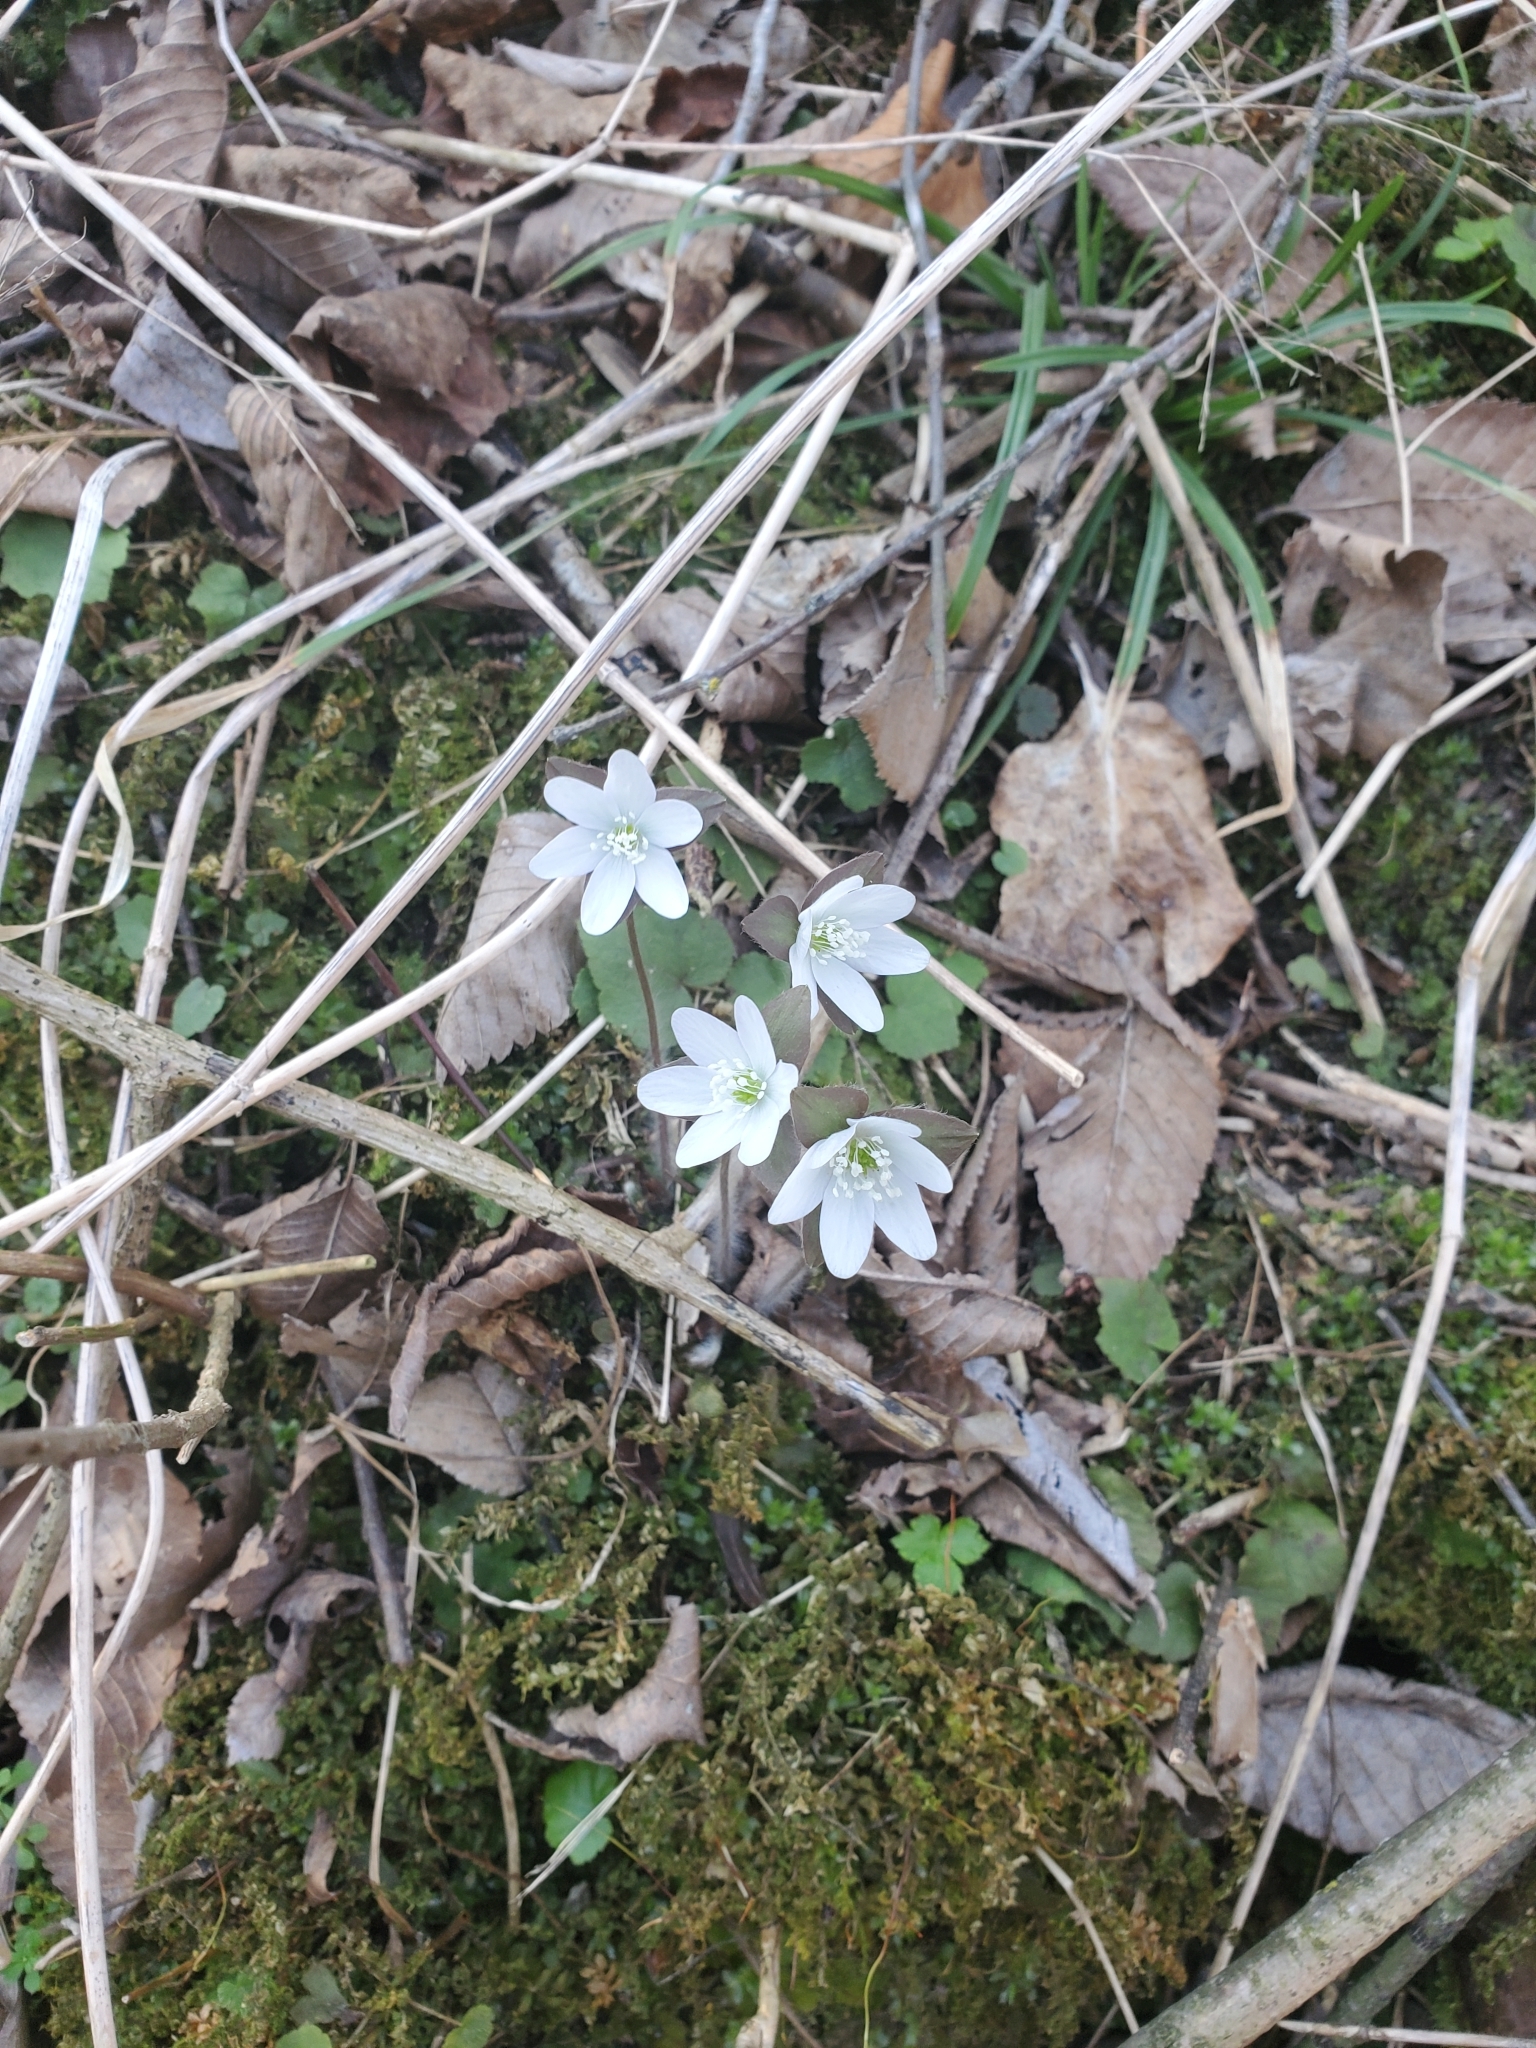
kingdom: Plantae
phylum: Tracheophyta
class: Magnoliopsida
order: Ranunculales
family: Ranunculaceae
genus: Hepatica
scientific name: Hepatica acutiloba
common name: Sharp-lobed hepatica
